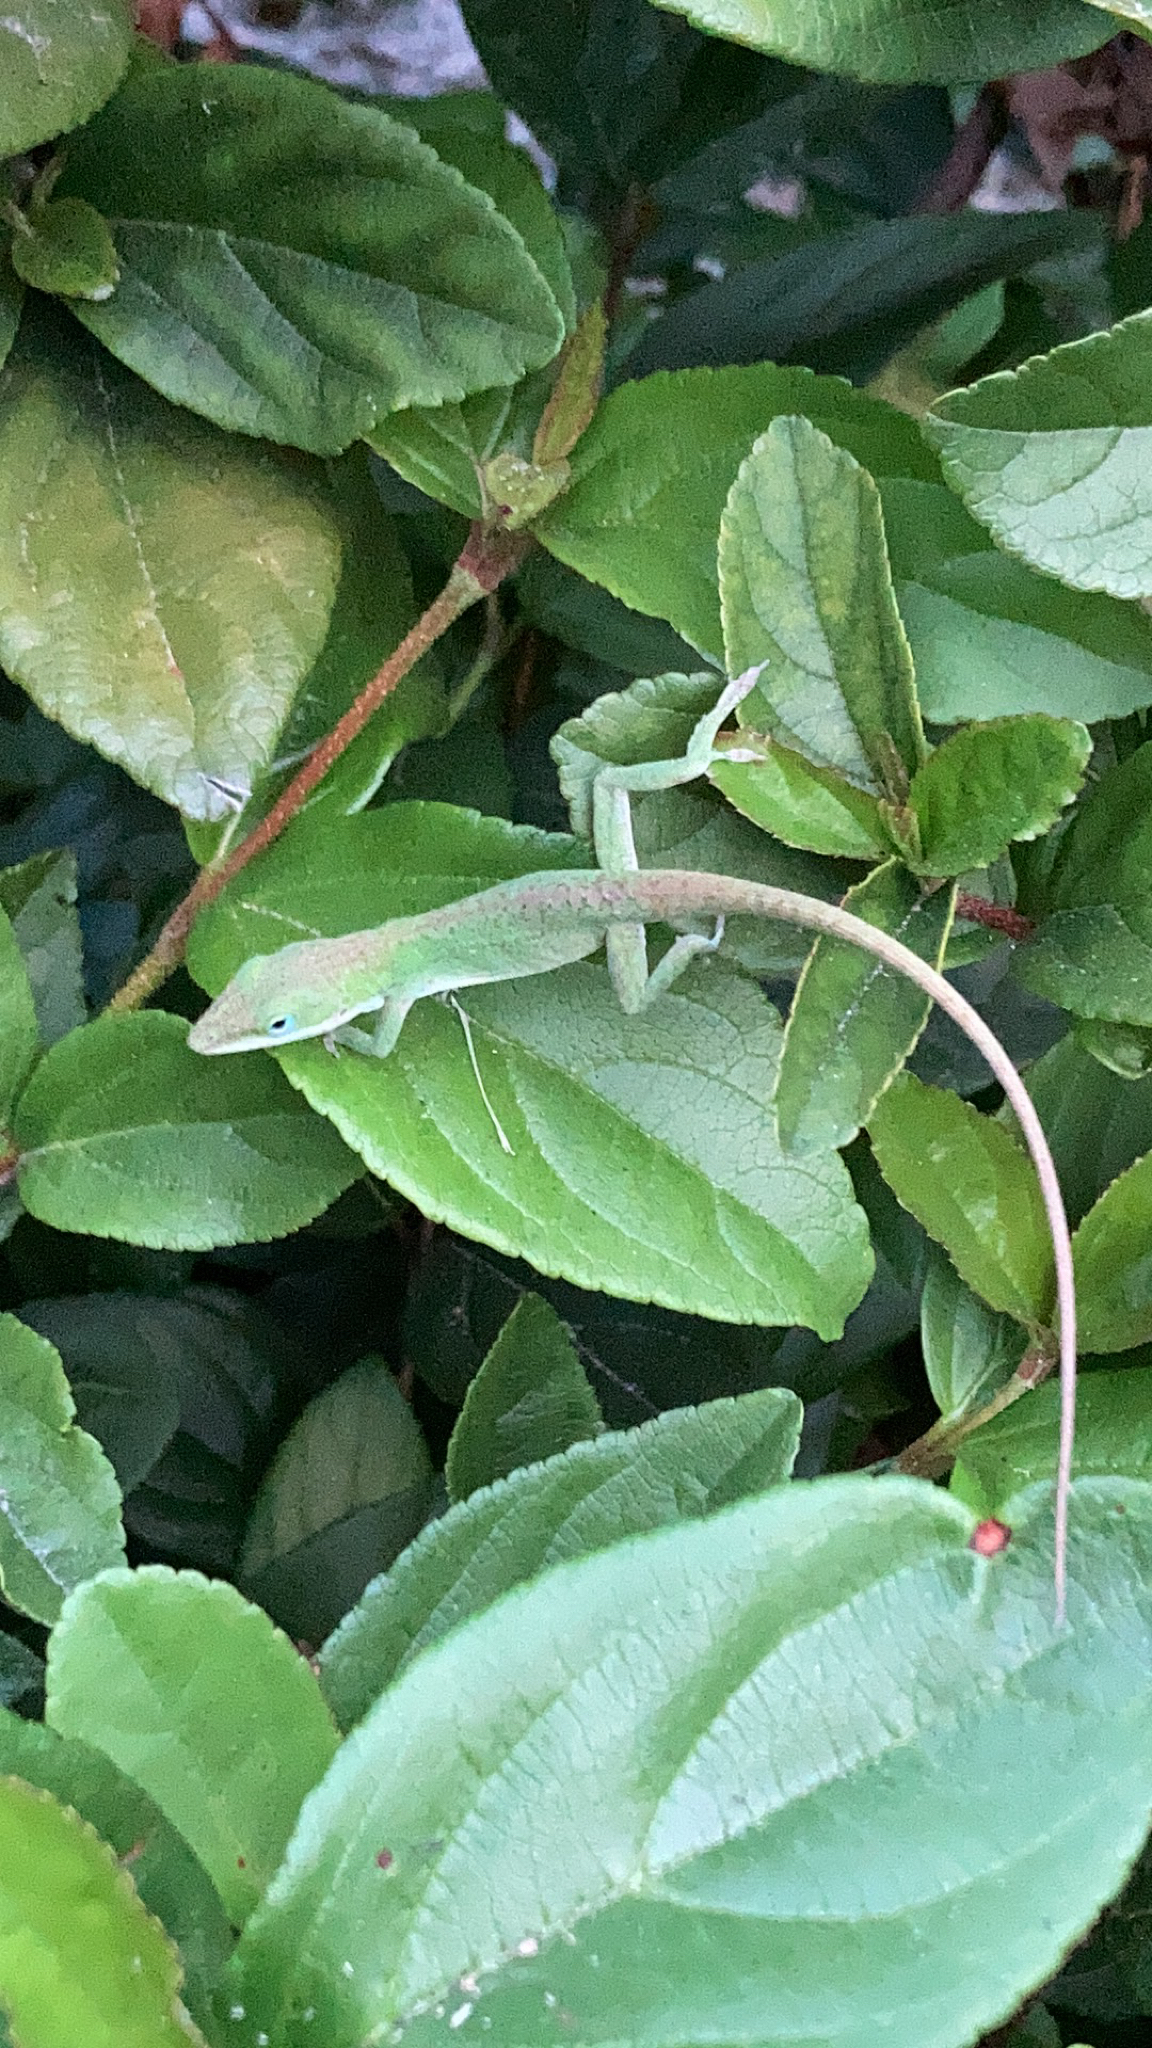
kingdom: Animalia
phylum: Chordata
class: Squamata
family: Dactyloidae
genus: Anolis
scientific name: Anolis carolinensis
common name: Green anole
